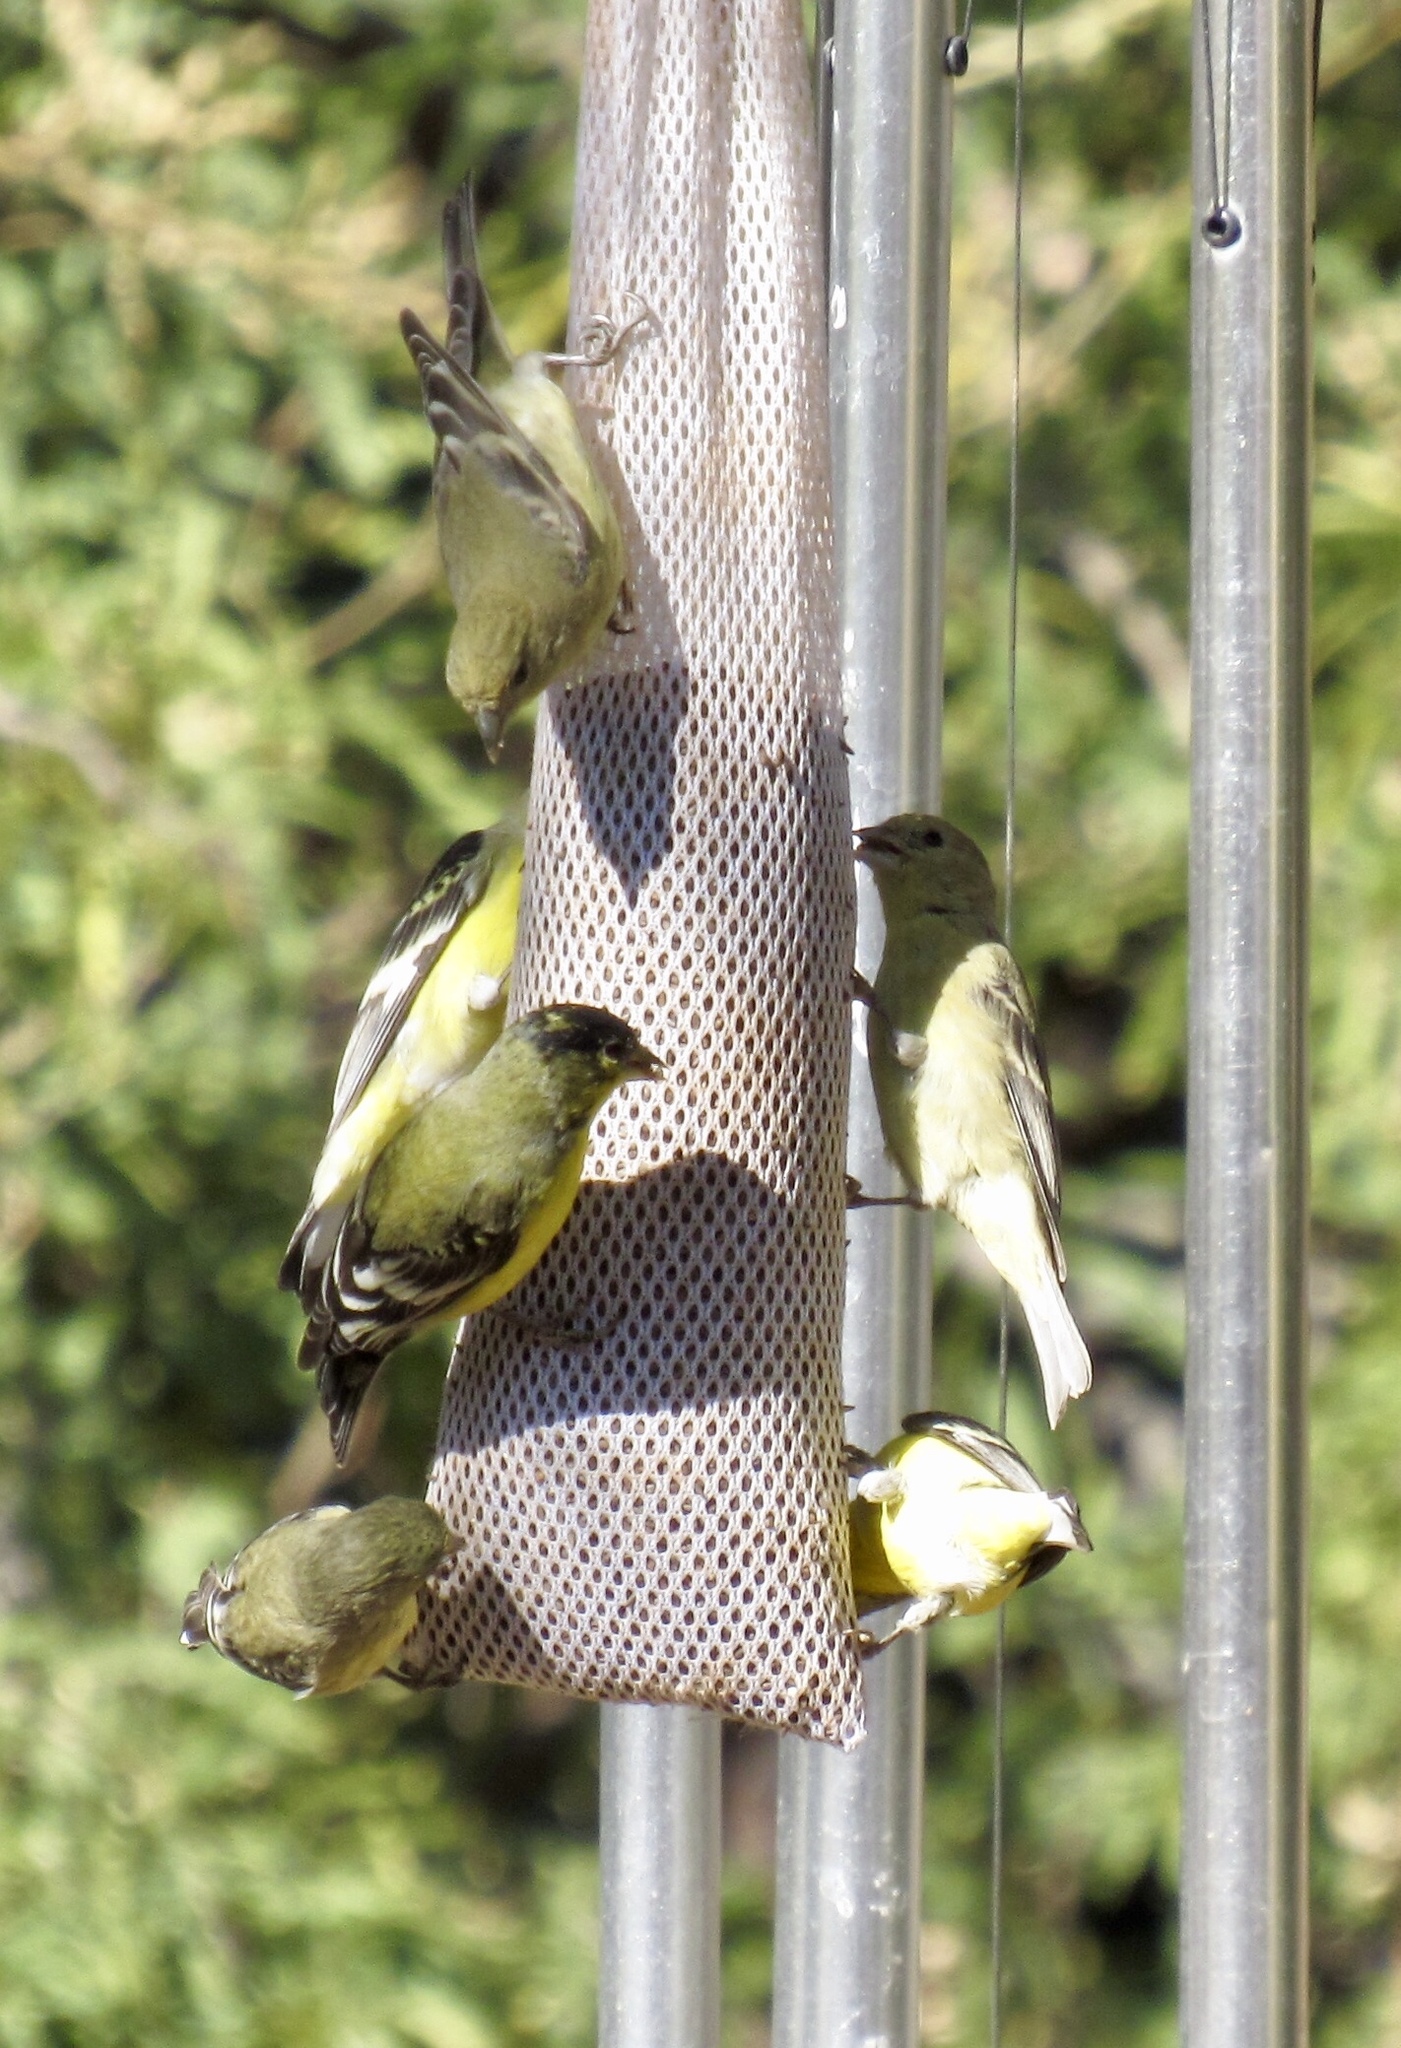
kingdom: Animalia
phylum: Chordata
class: Aves
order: Passeriformes
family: Fringillidae
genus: Spinus
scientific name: Spinus psaltria
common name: Lesser goldfinch
